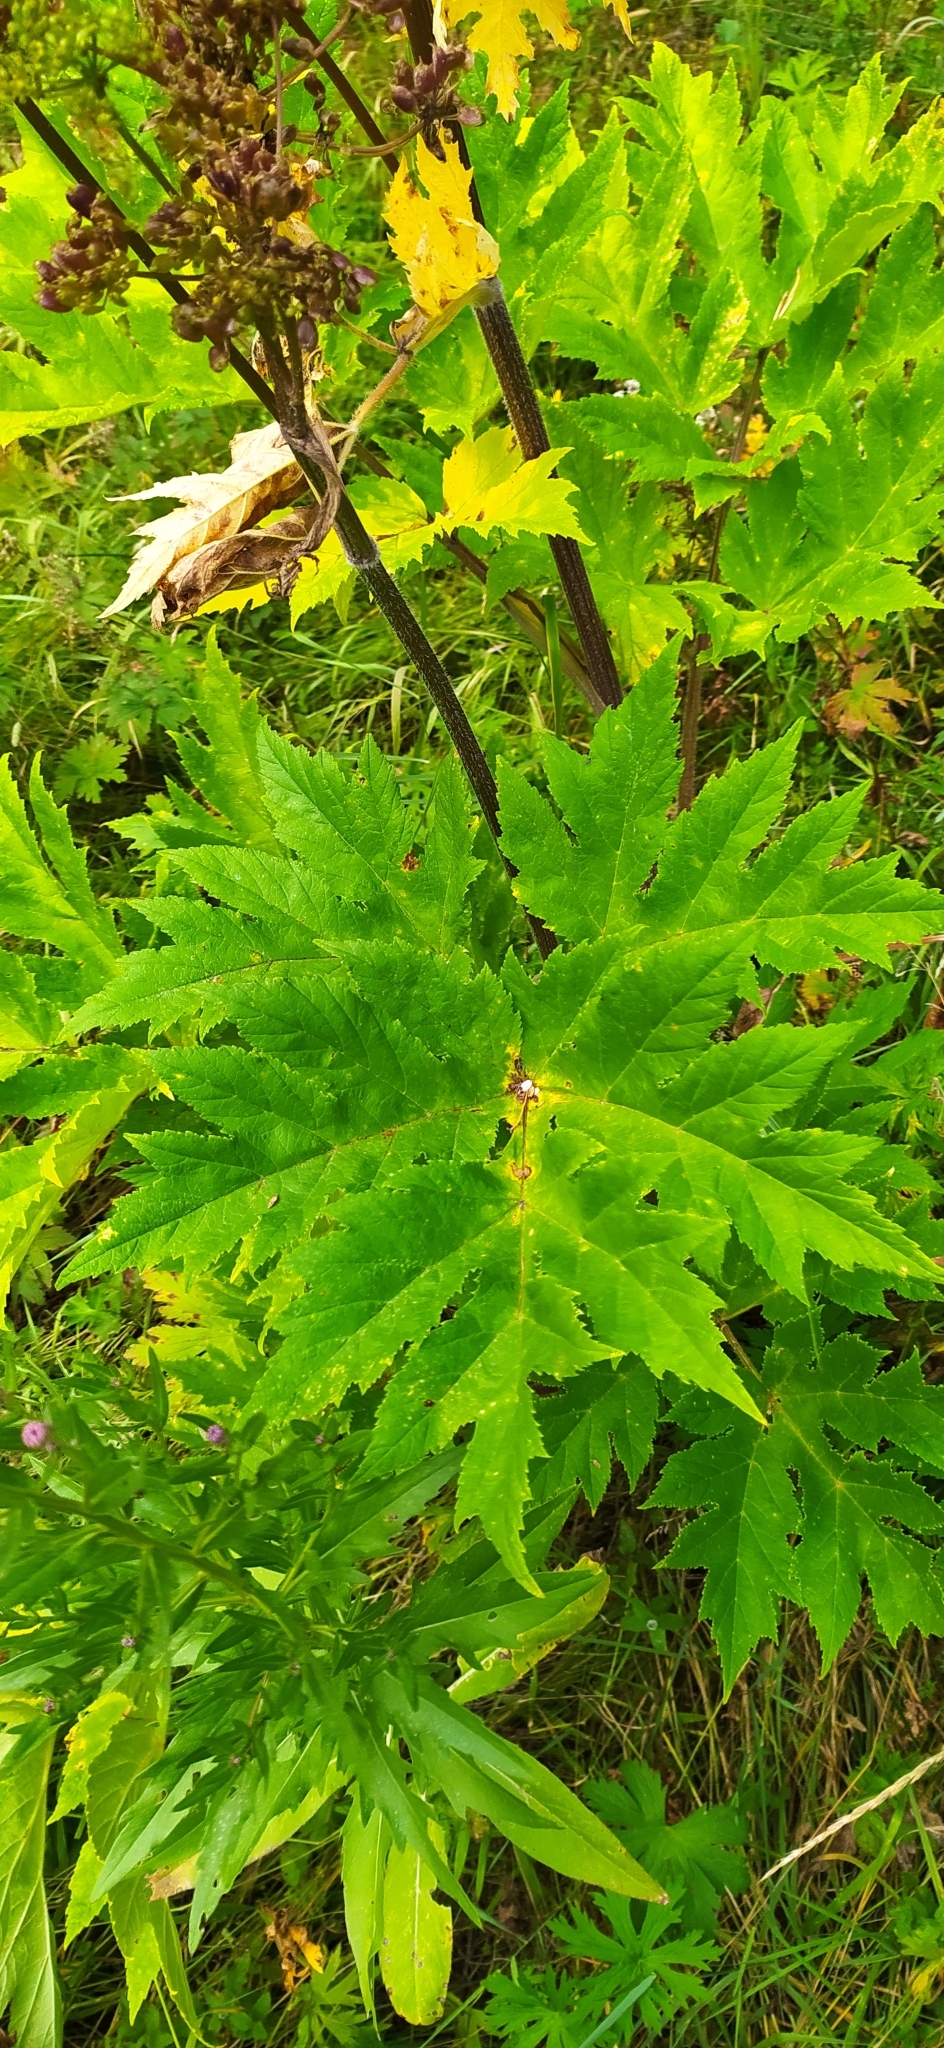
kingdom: Plantae
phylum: Tracheophyta
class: Magnoliopsida
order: Apiales
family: Apiaceae
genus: Heracleum
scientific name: Heracleum sphondylium
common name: Hogweed
